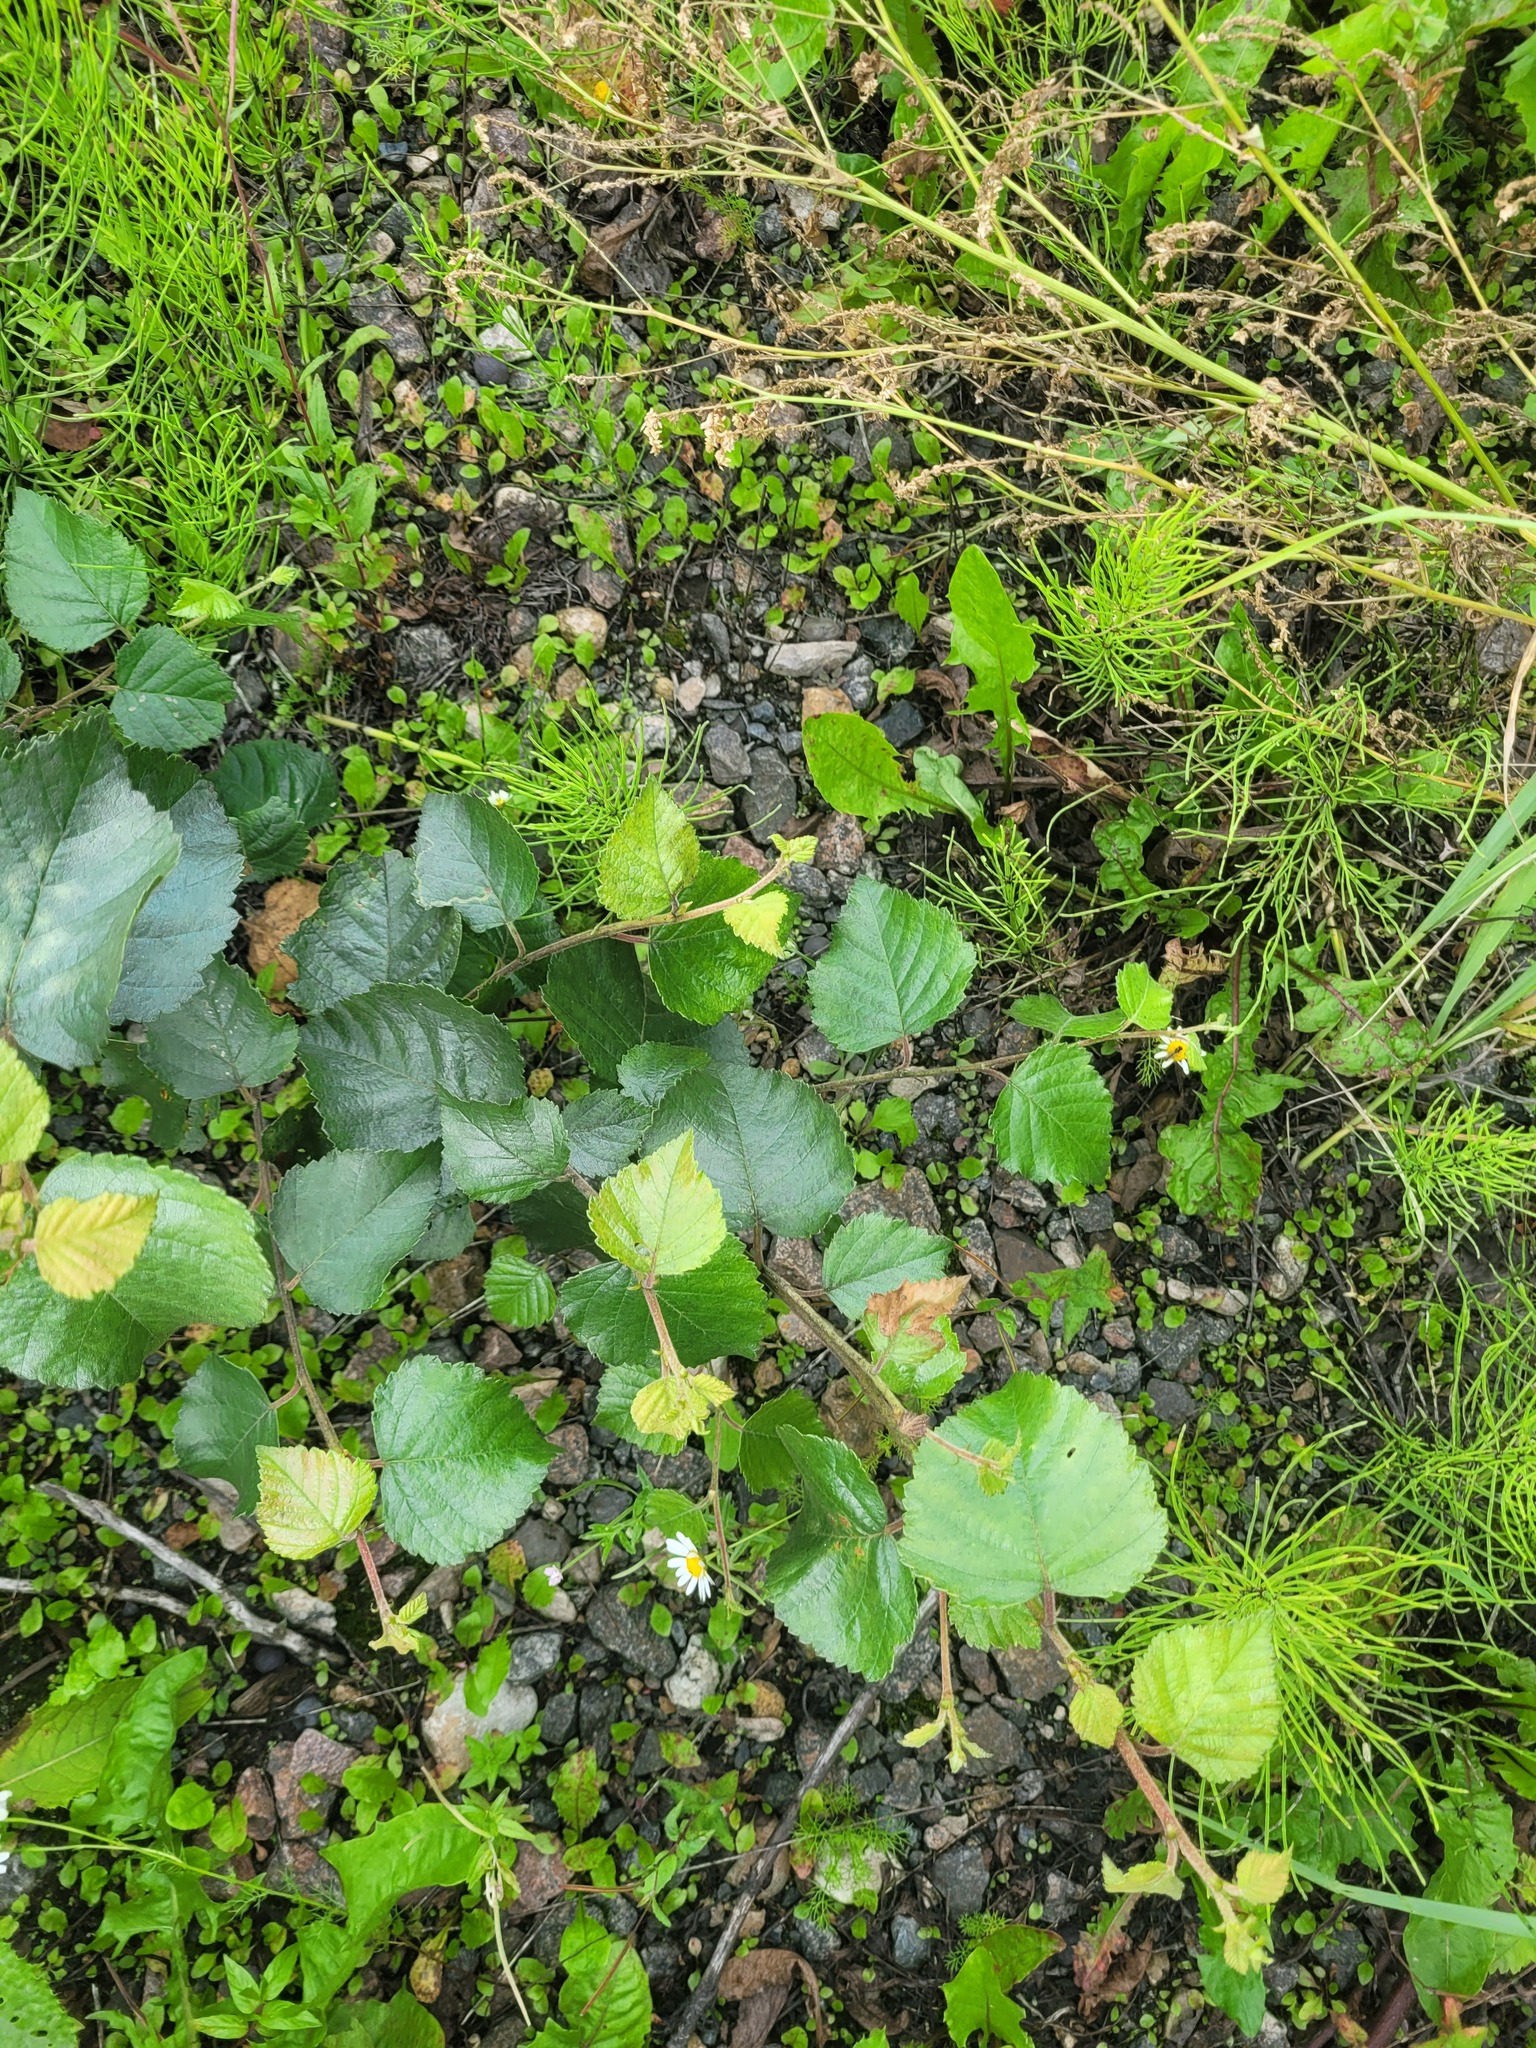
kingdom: Plantae
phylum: Tracheophyta
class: Magnoliopsida
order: Fagales
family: Betulaceae
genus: Betula
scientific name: Betula pubescens
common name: Downy birch
